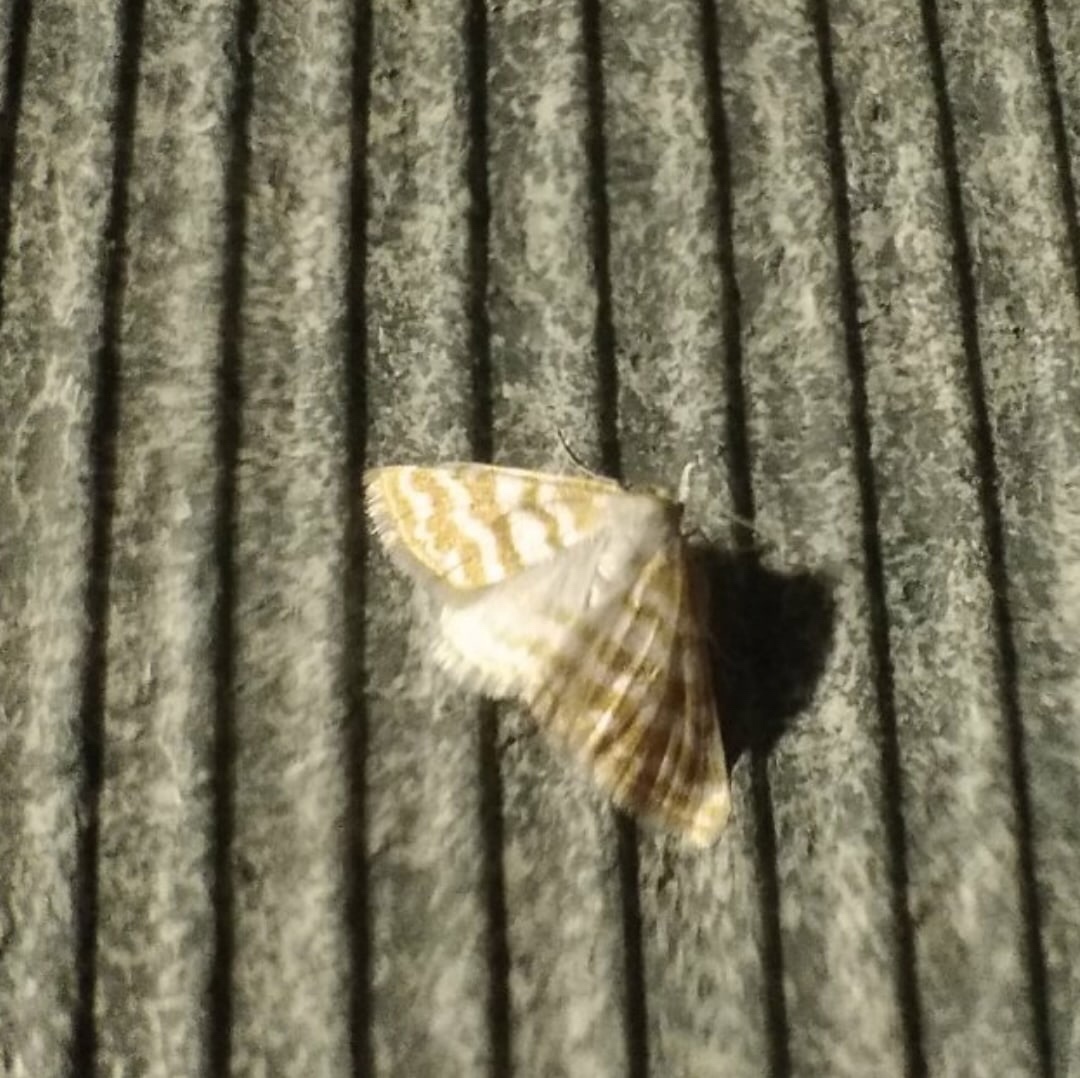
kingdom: Animalia
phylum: Arthropoda
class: Insecta
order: Lepidoptera
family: Geometridae
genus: Idaea
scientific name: Idaea sericeata
